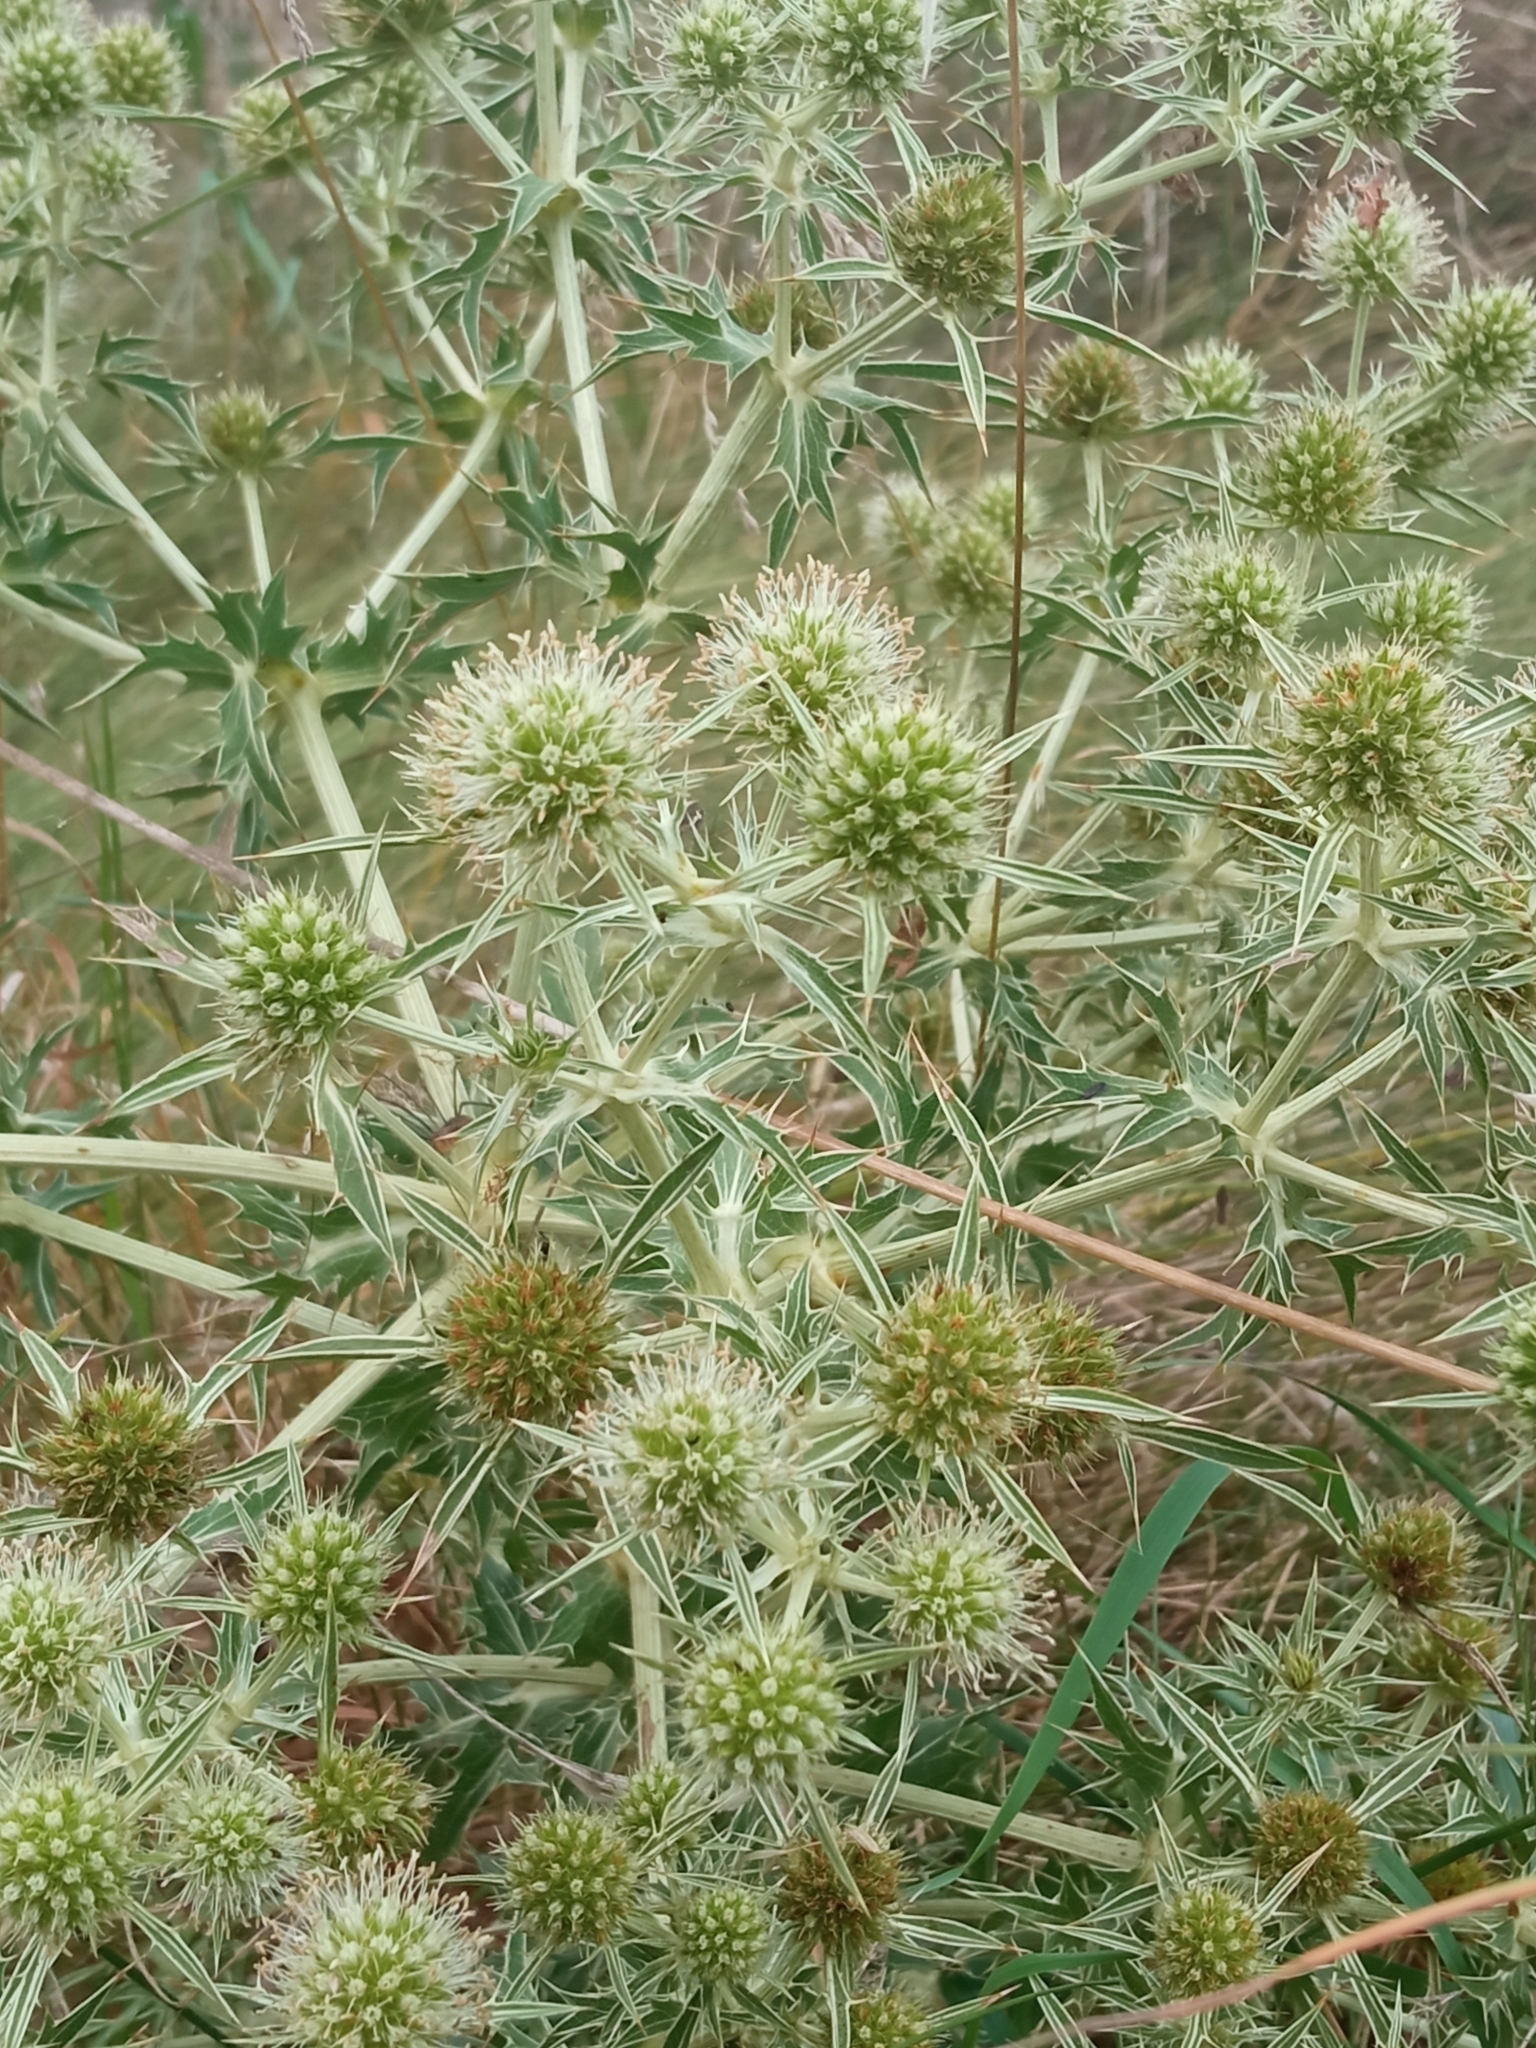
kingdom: Plantae
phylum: Tracheophyta
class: Magnoliopsida
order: Apiales
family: Apiaceae
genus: Eryngium
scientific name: Eryngium campestre
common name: Field eryngo
